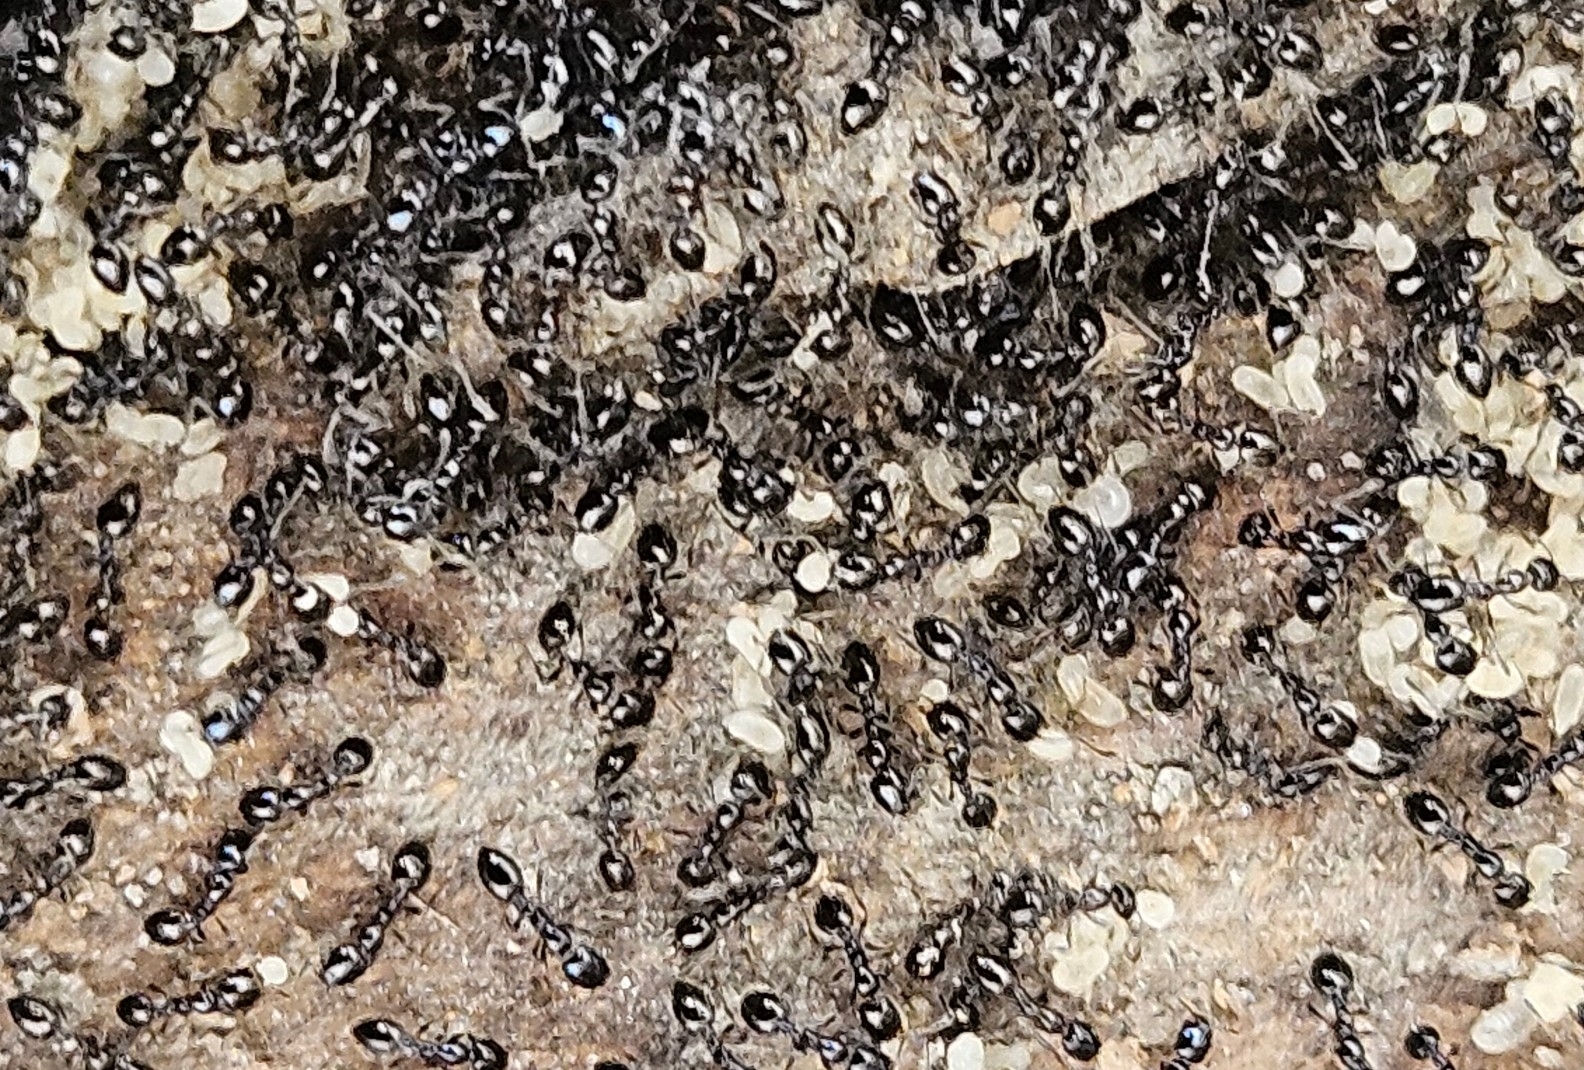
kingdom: Animalia
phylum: Arthropoda
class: Insecta
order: Hymenoptera
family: Formicidae
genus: Monomorium
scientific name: Monomorium
